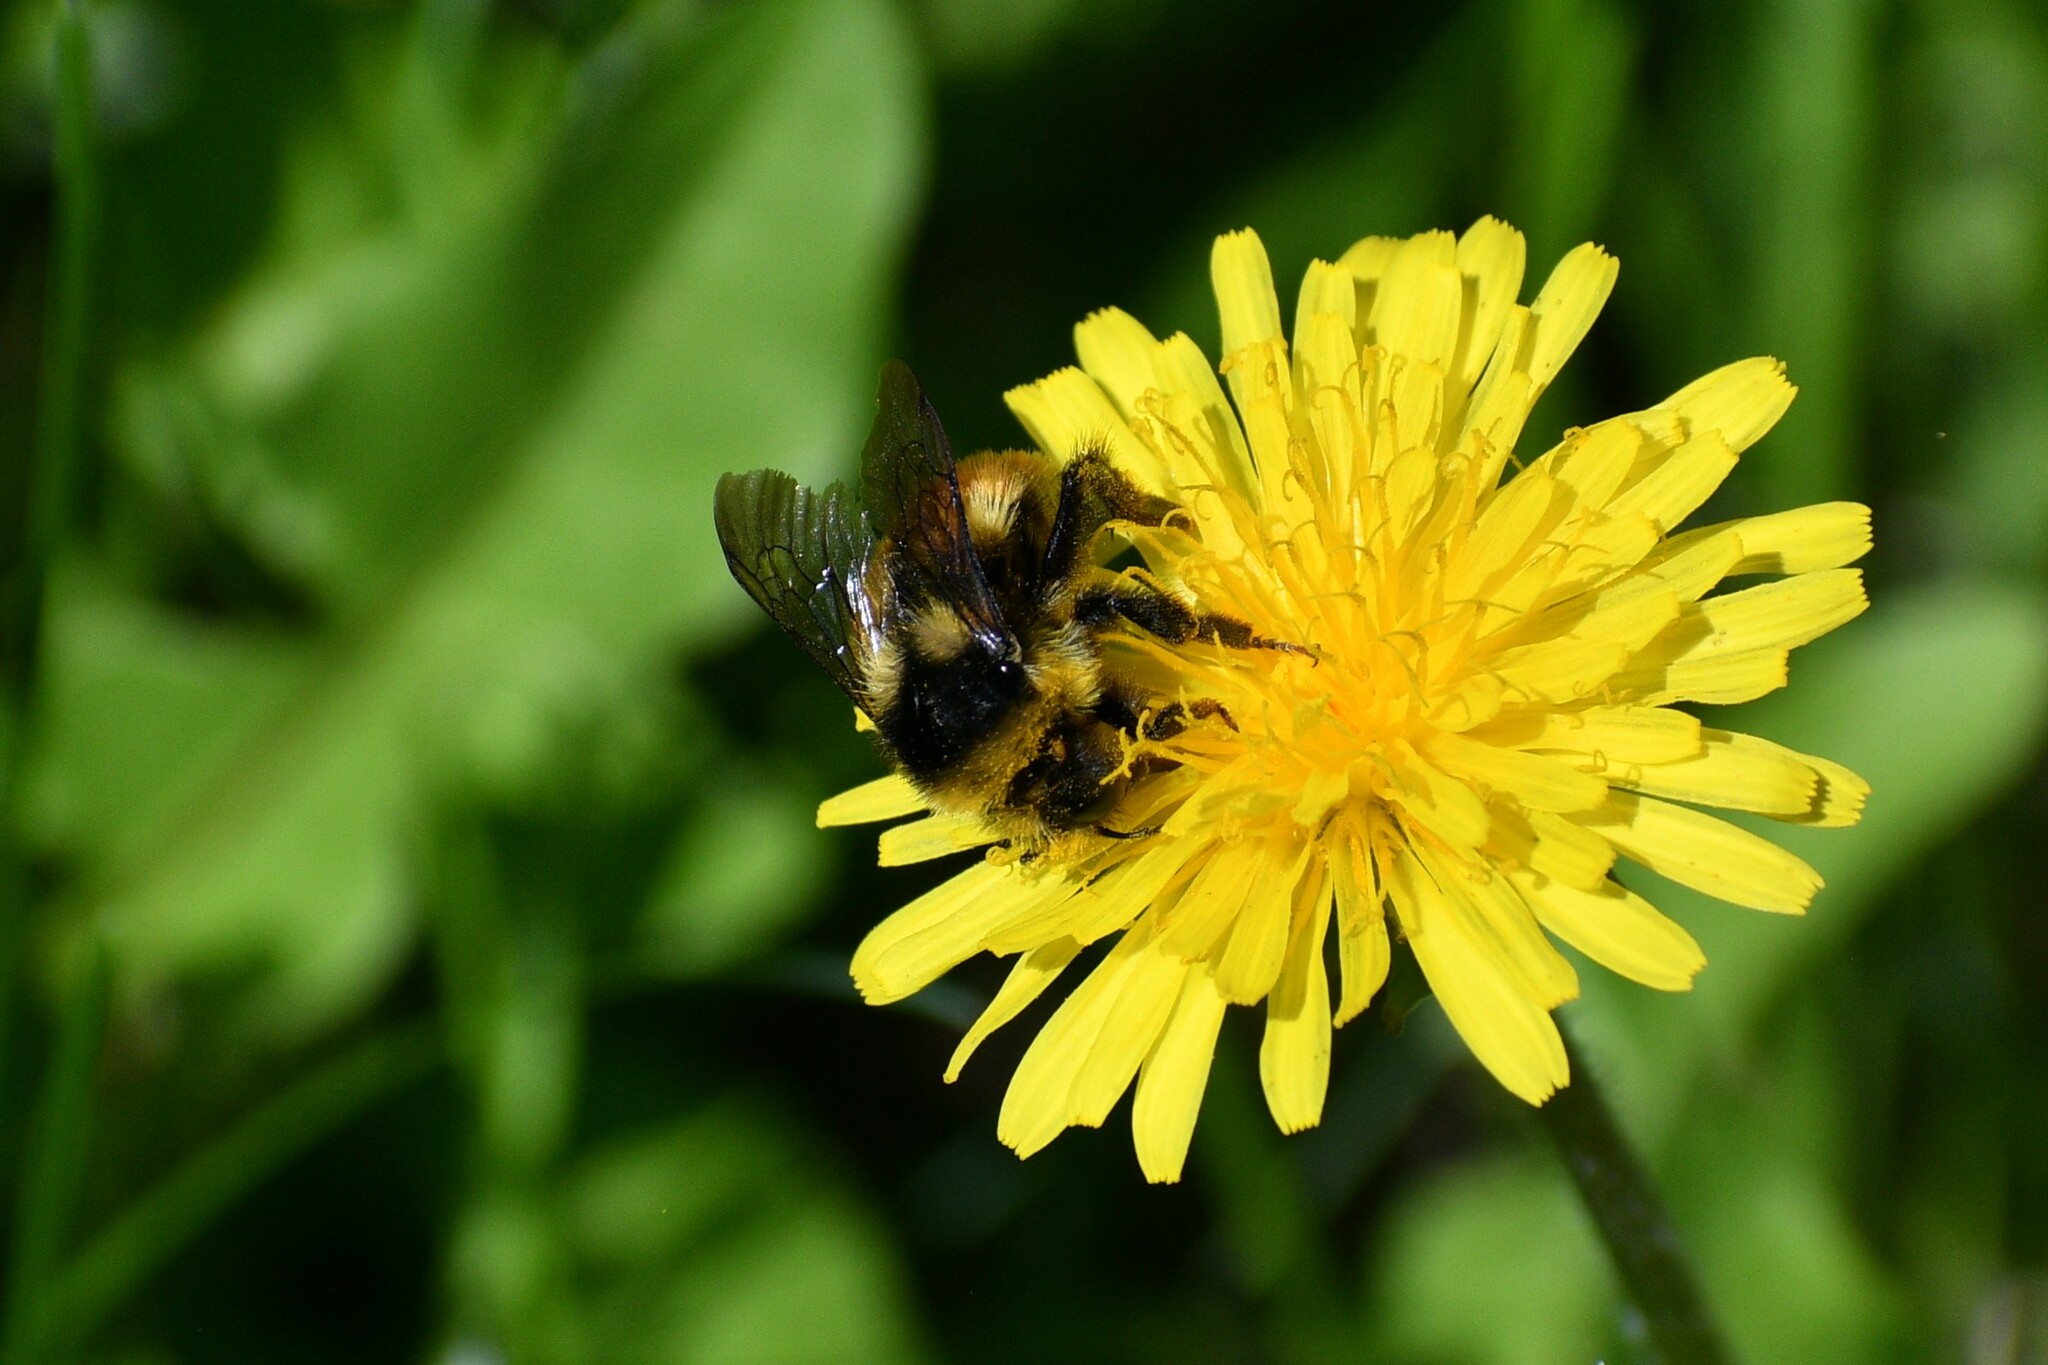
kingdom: Animalia
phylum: Arthropoda
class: Insecta
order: Hymenoptera
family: Apidae
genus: Bombus
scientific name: Bombus vancouverensis
